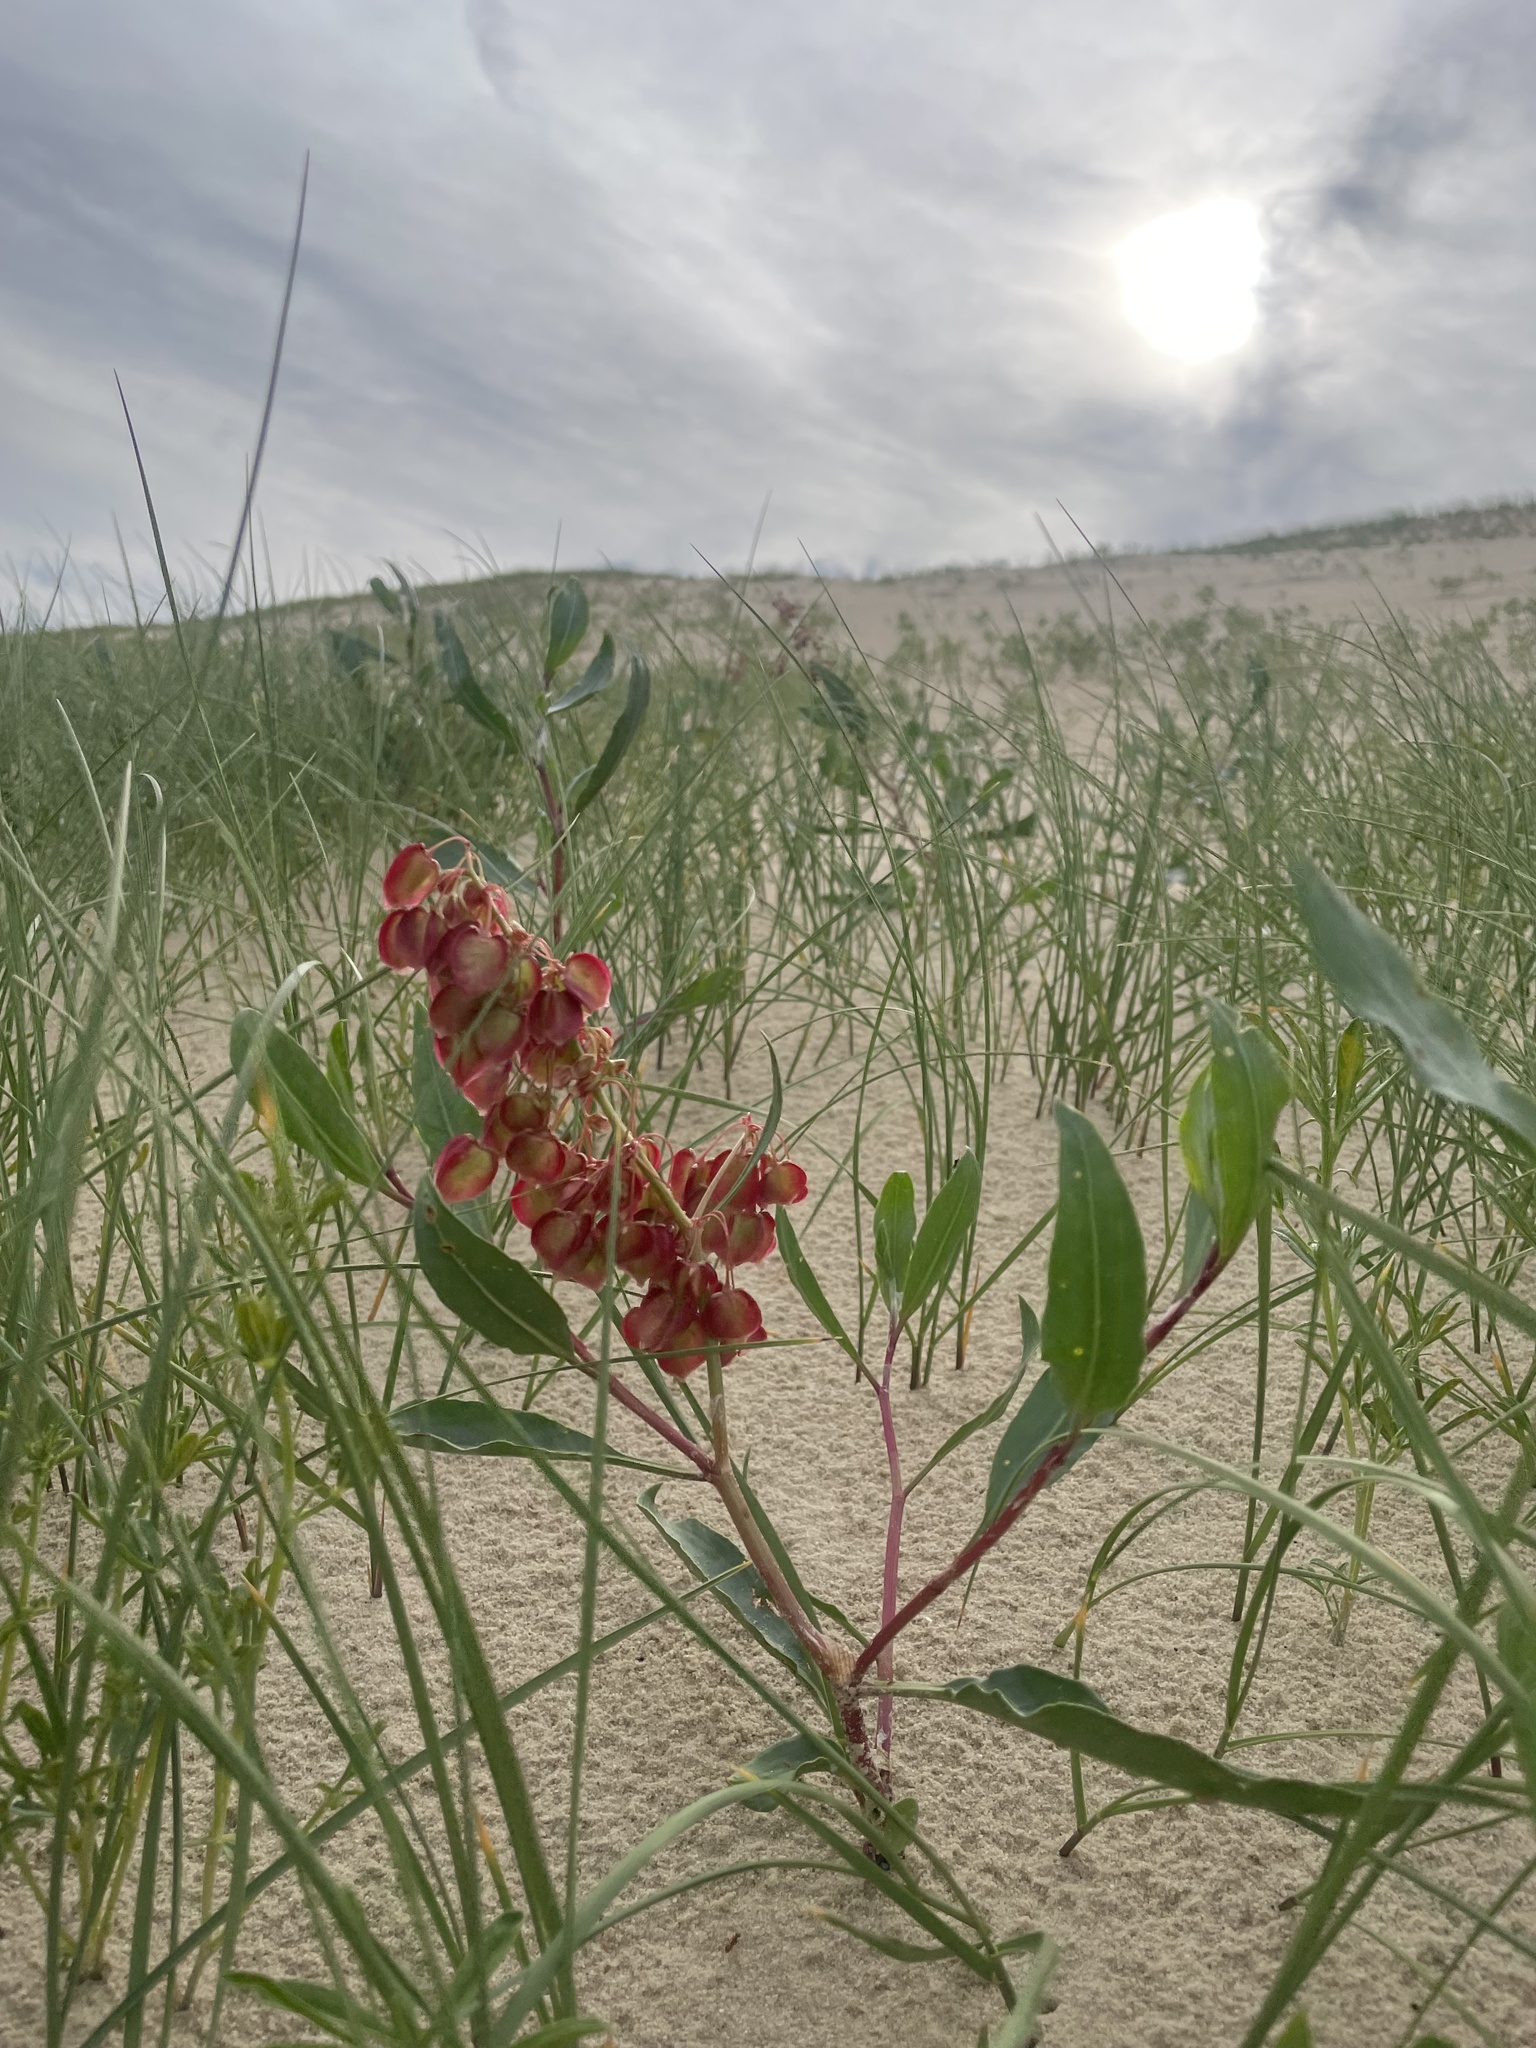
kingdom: Plantae
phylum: Tracheophyta
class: Magnoliopsida
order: Caryophyllales
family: Polygonaceae
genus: Rumex
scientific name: Rumex venosus
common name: Winged dock
